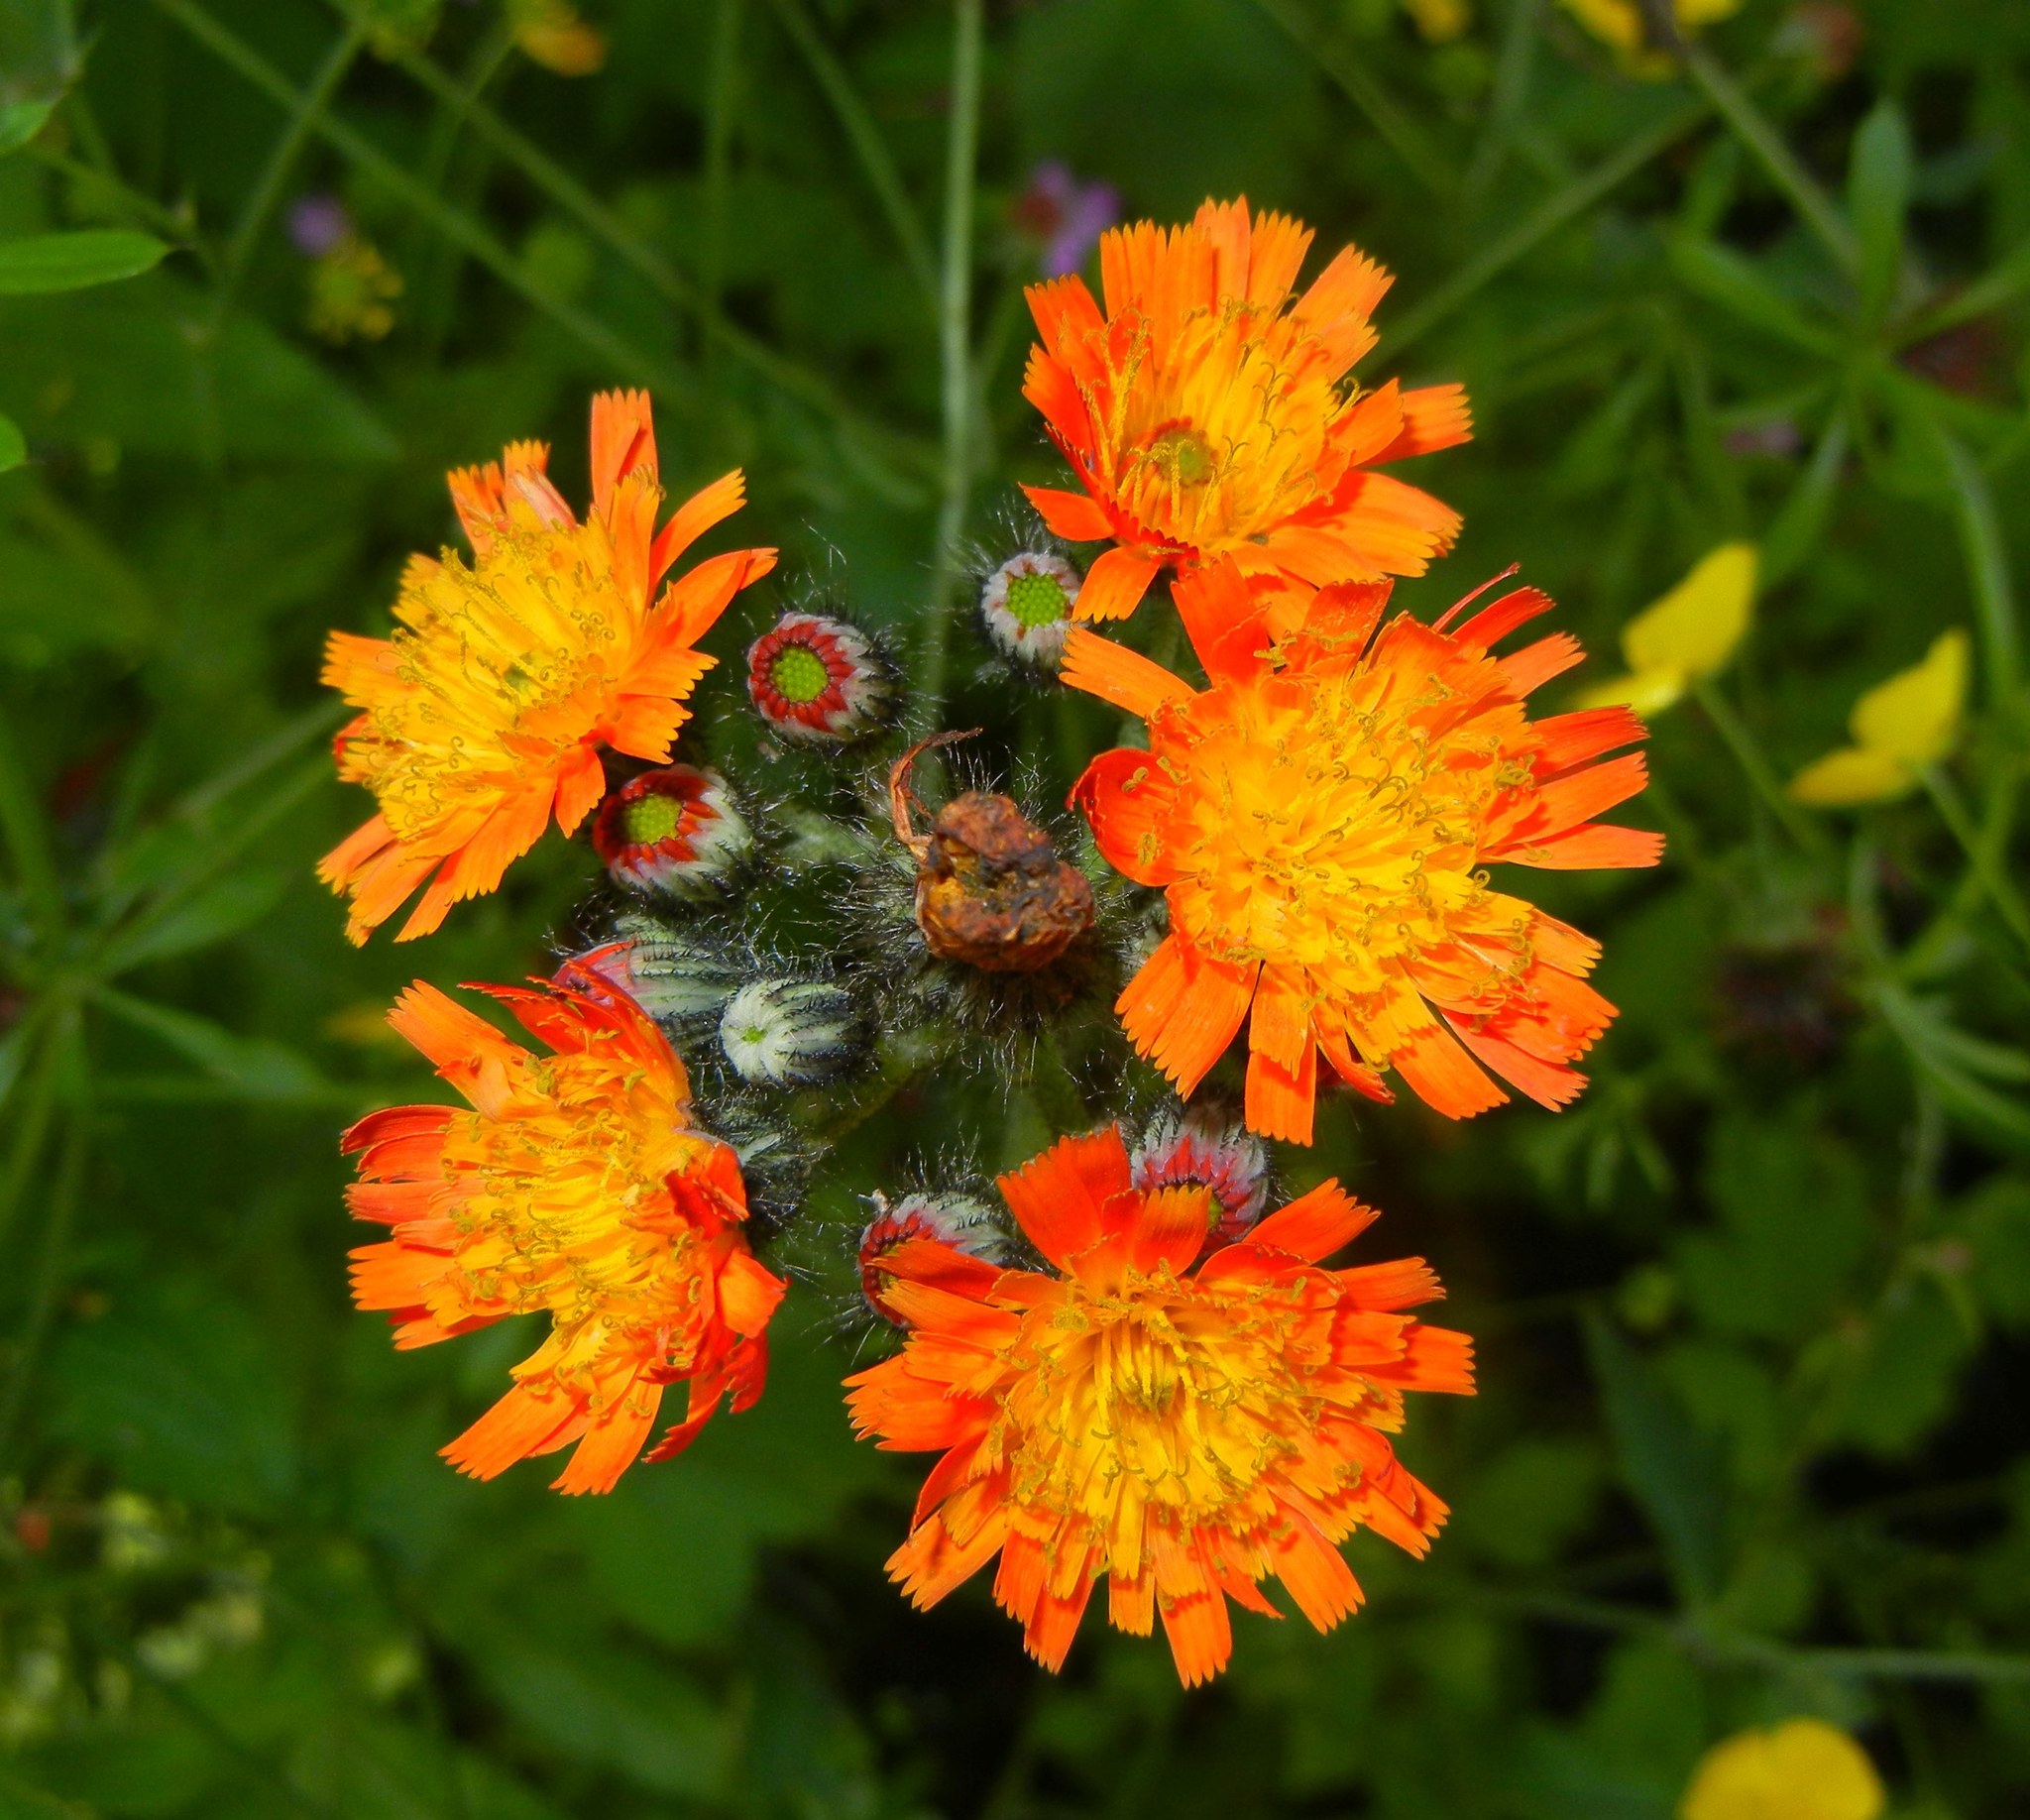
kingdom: Plantae
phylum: Tracheophyta
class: Magnoliopsida
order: Asterales
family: Asteraceae
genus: Pilosella
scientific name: Pilosella aurantiaca
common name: Fox-and-cubs
